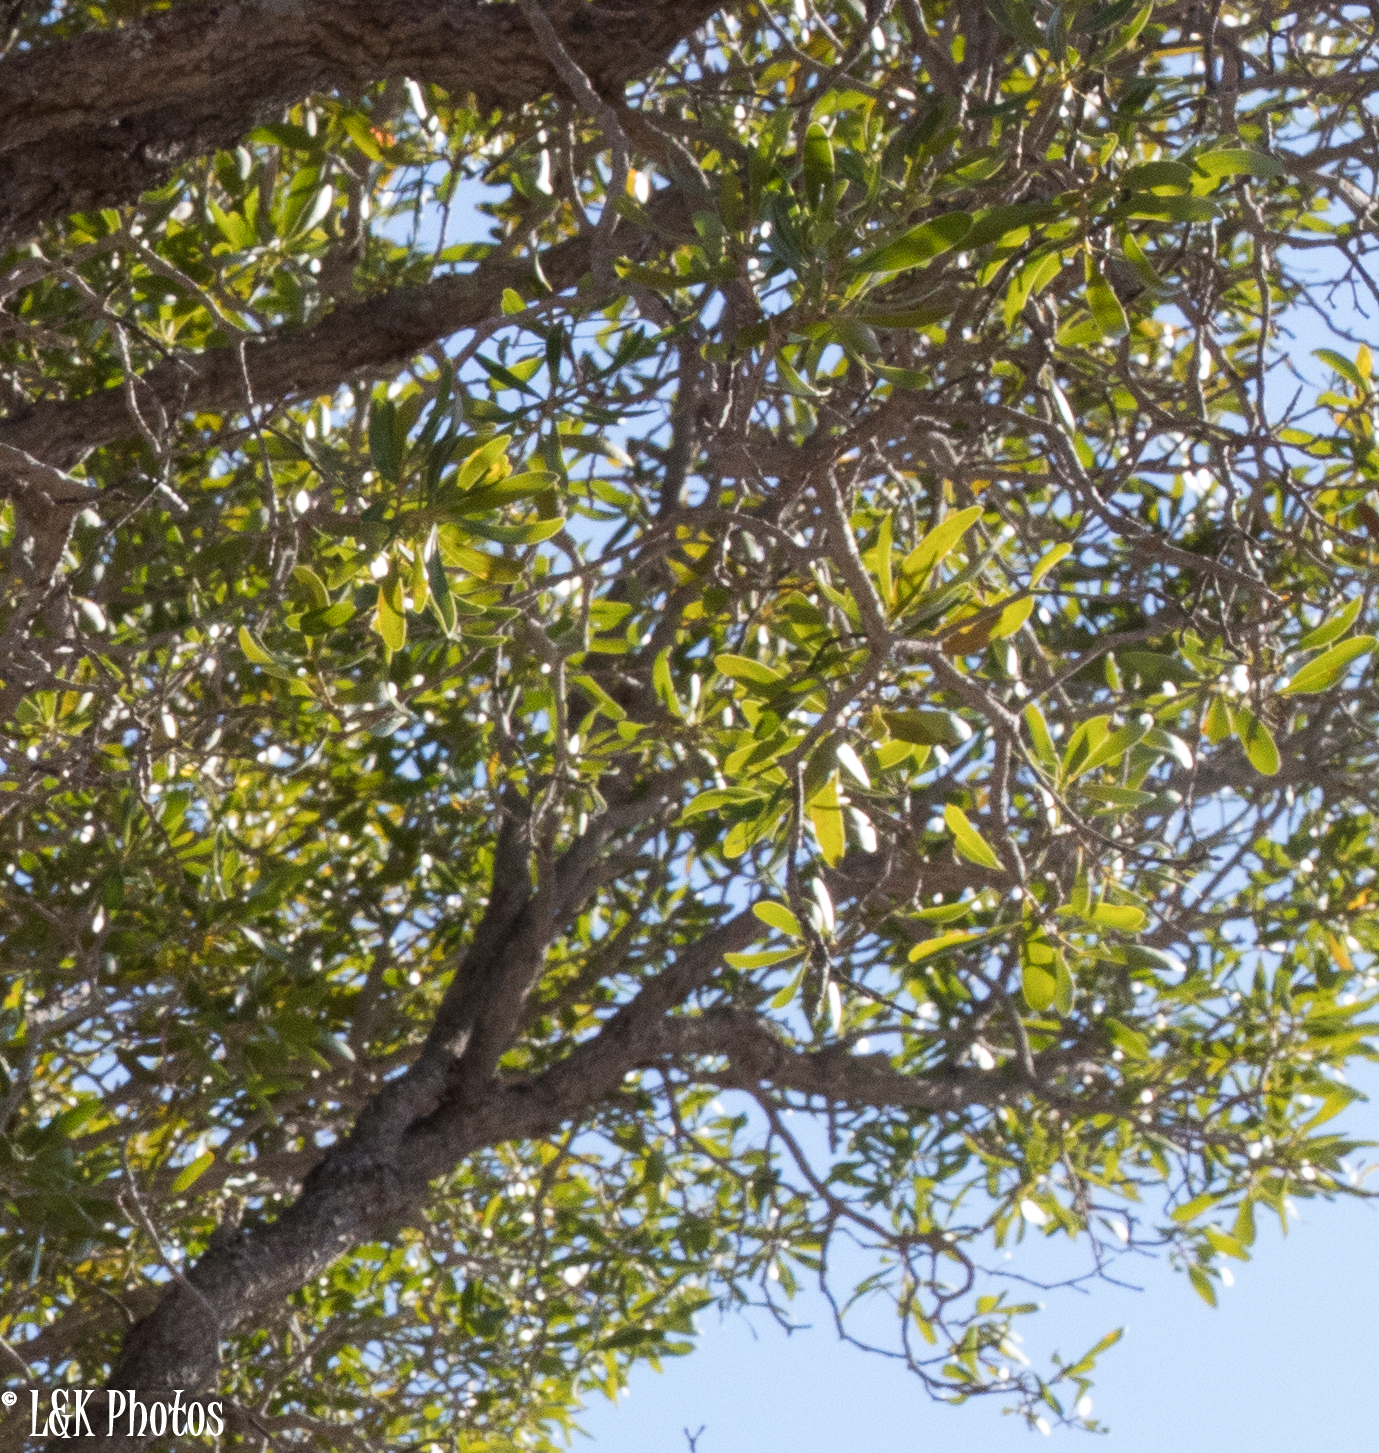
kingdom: Plantae
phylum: Tracheophyta
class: Magnoliopsida
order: Caryophyllales
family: Asteropeiaceae
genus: Asteropeia
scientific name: Asteropeia labatii
